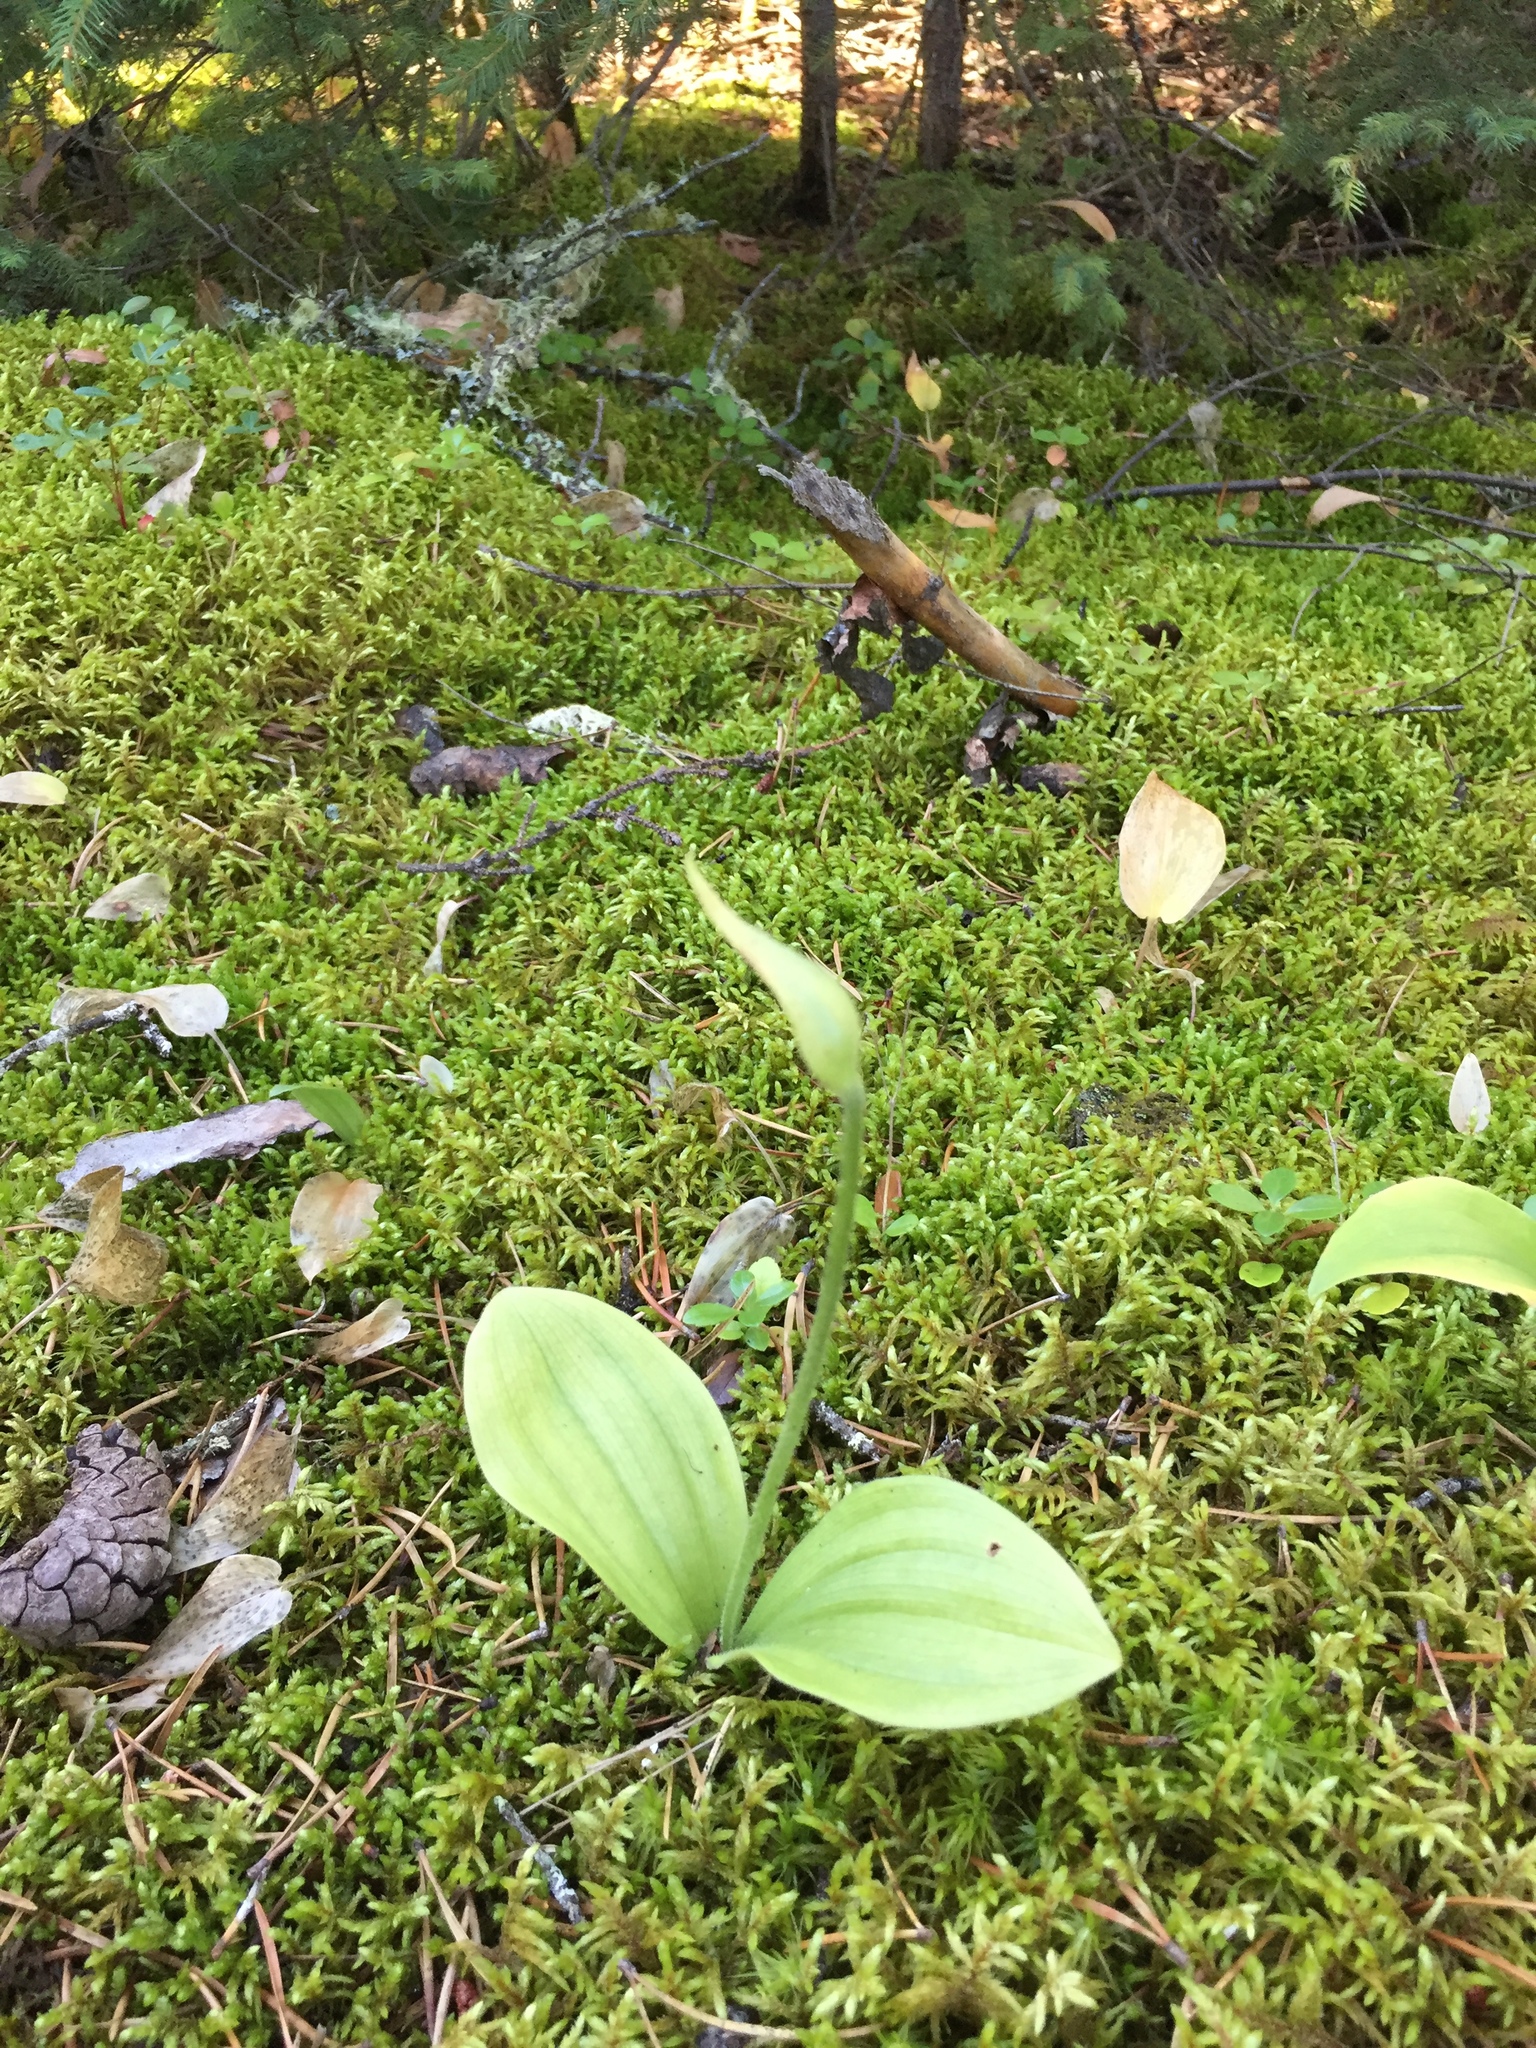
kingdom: Plantae
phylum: Tracheophyta
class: Liliopsida
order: Asparagales
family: Orchidaceae
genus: Cypripedium
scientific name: Cypripedium acaule
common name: Pink lady's-slipper
